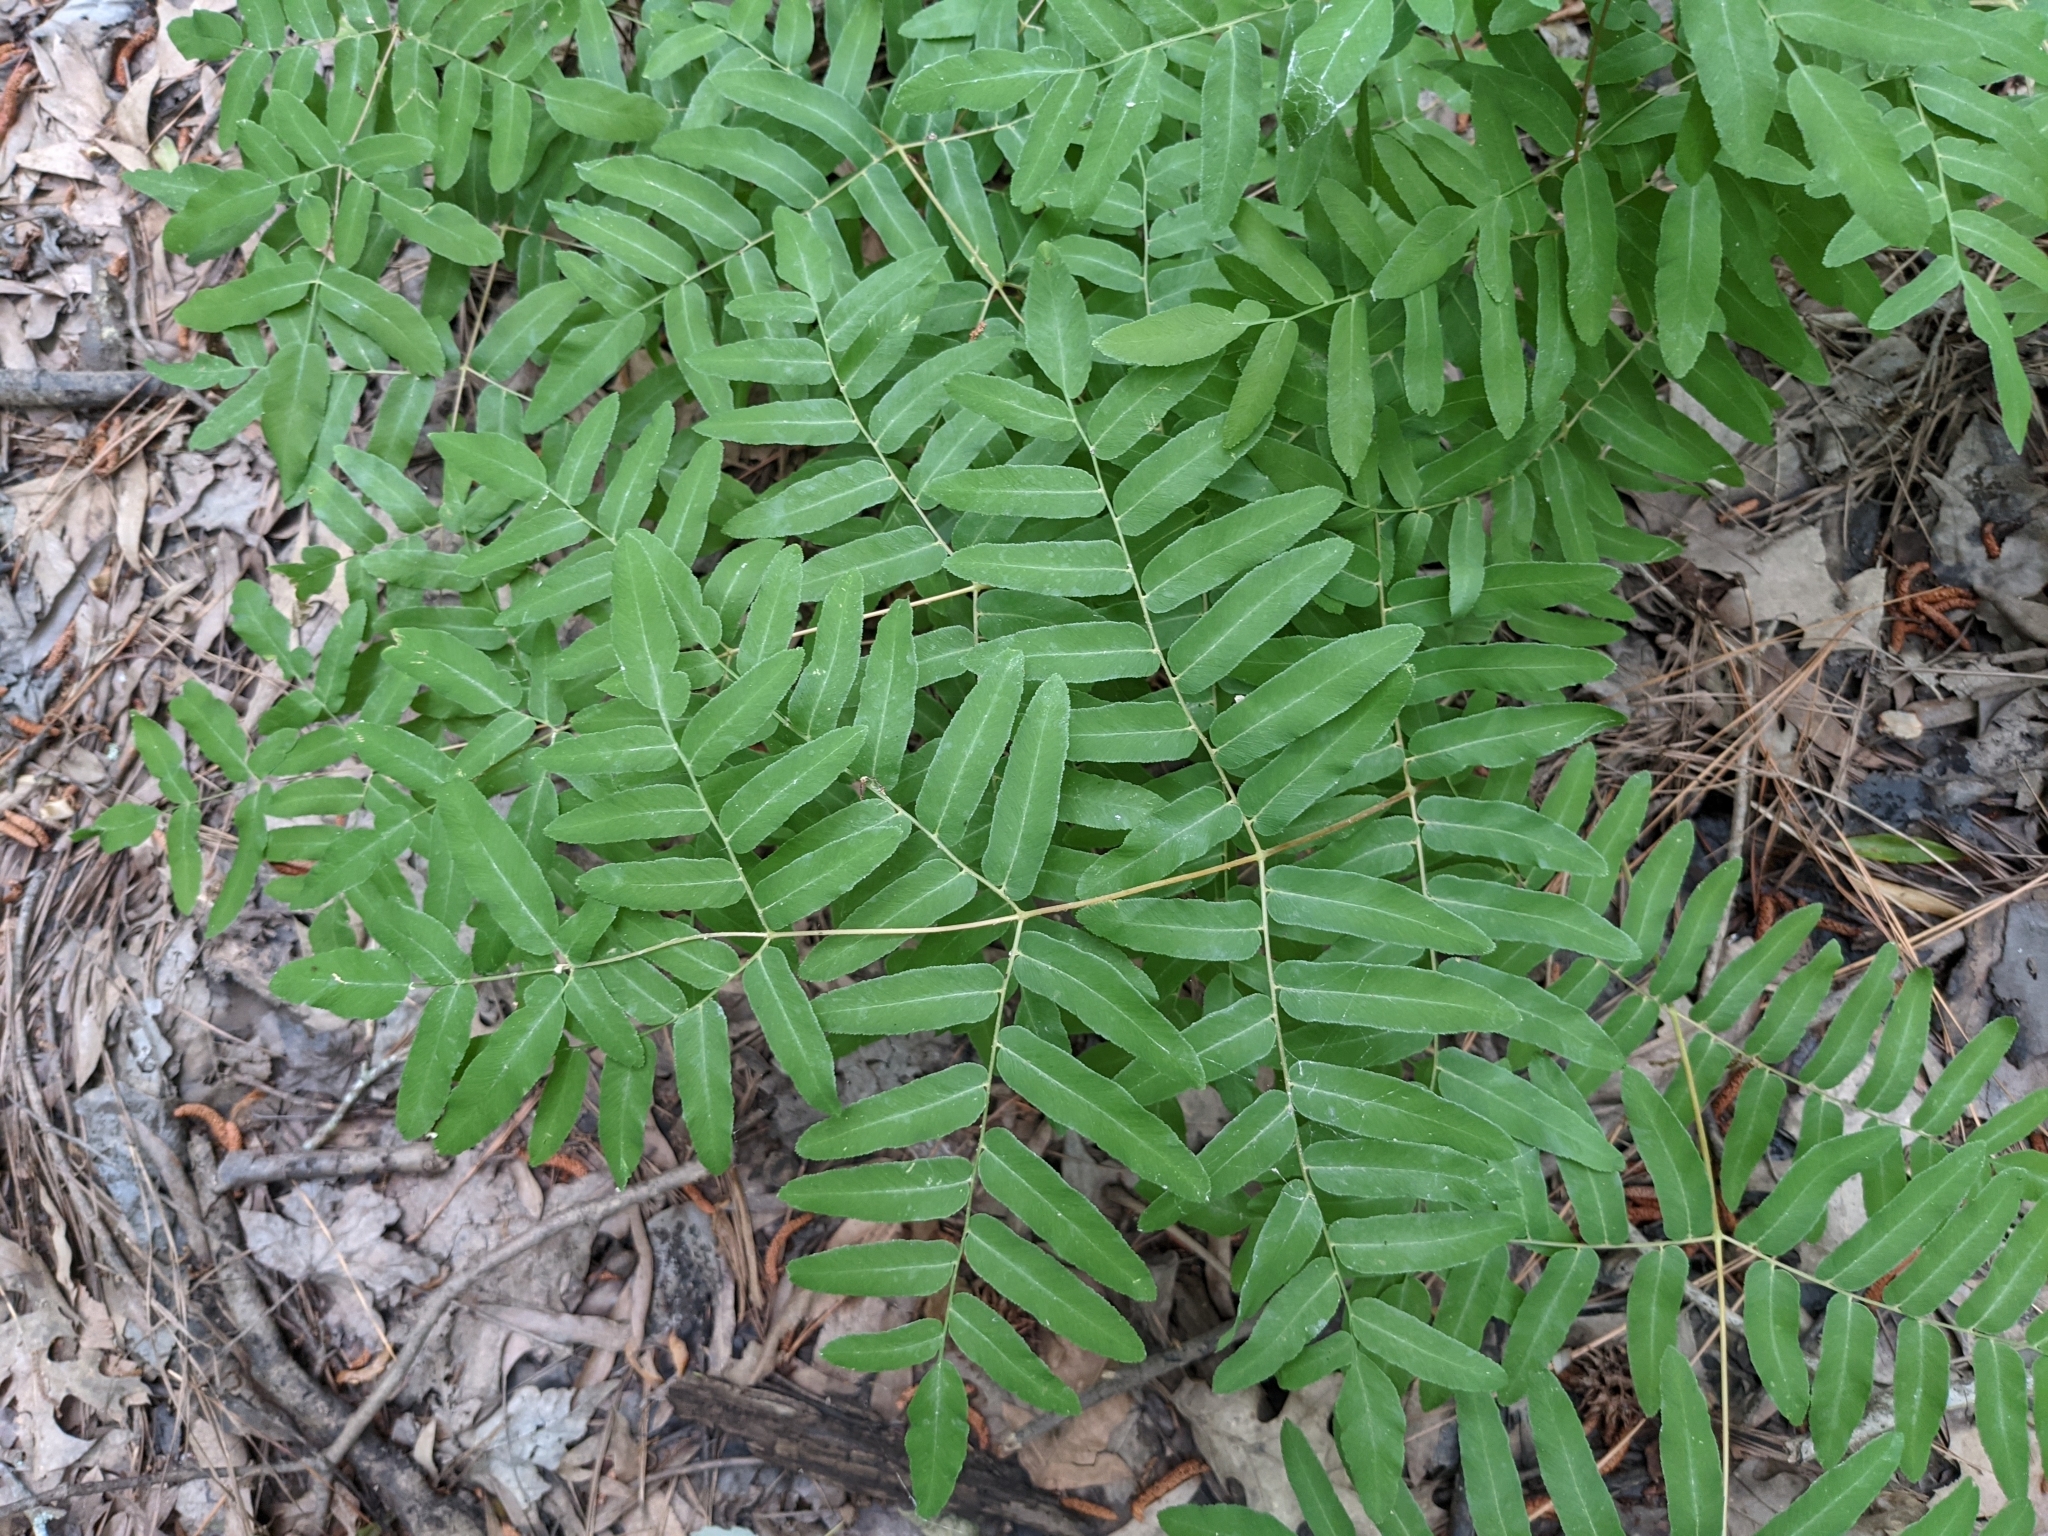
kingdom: Plantae
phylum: Tracheophyta
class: Polypodiopsida
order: Osmundales
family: Osmundaceae
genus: Osmunda
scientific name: Osmunda spectabilis
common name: American royal fern
